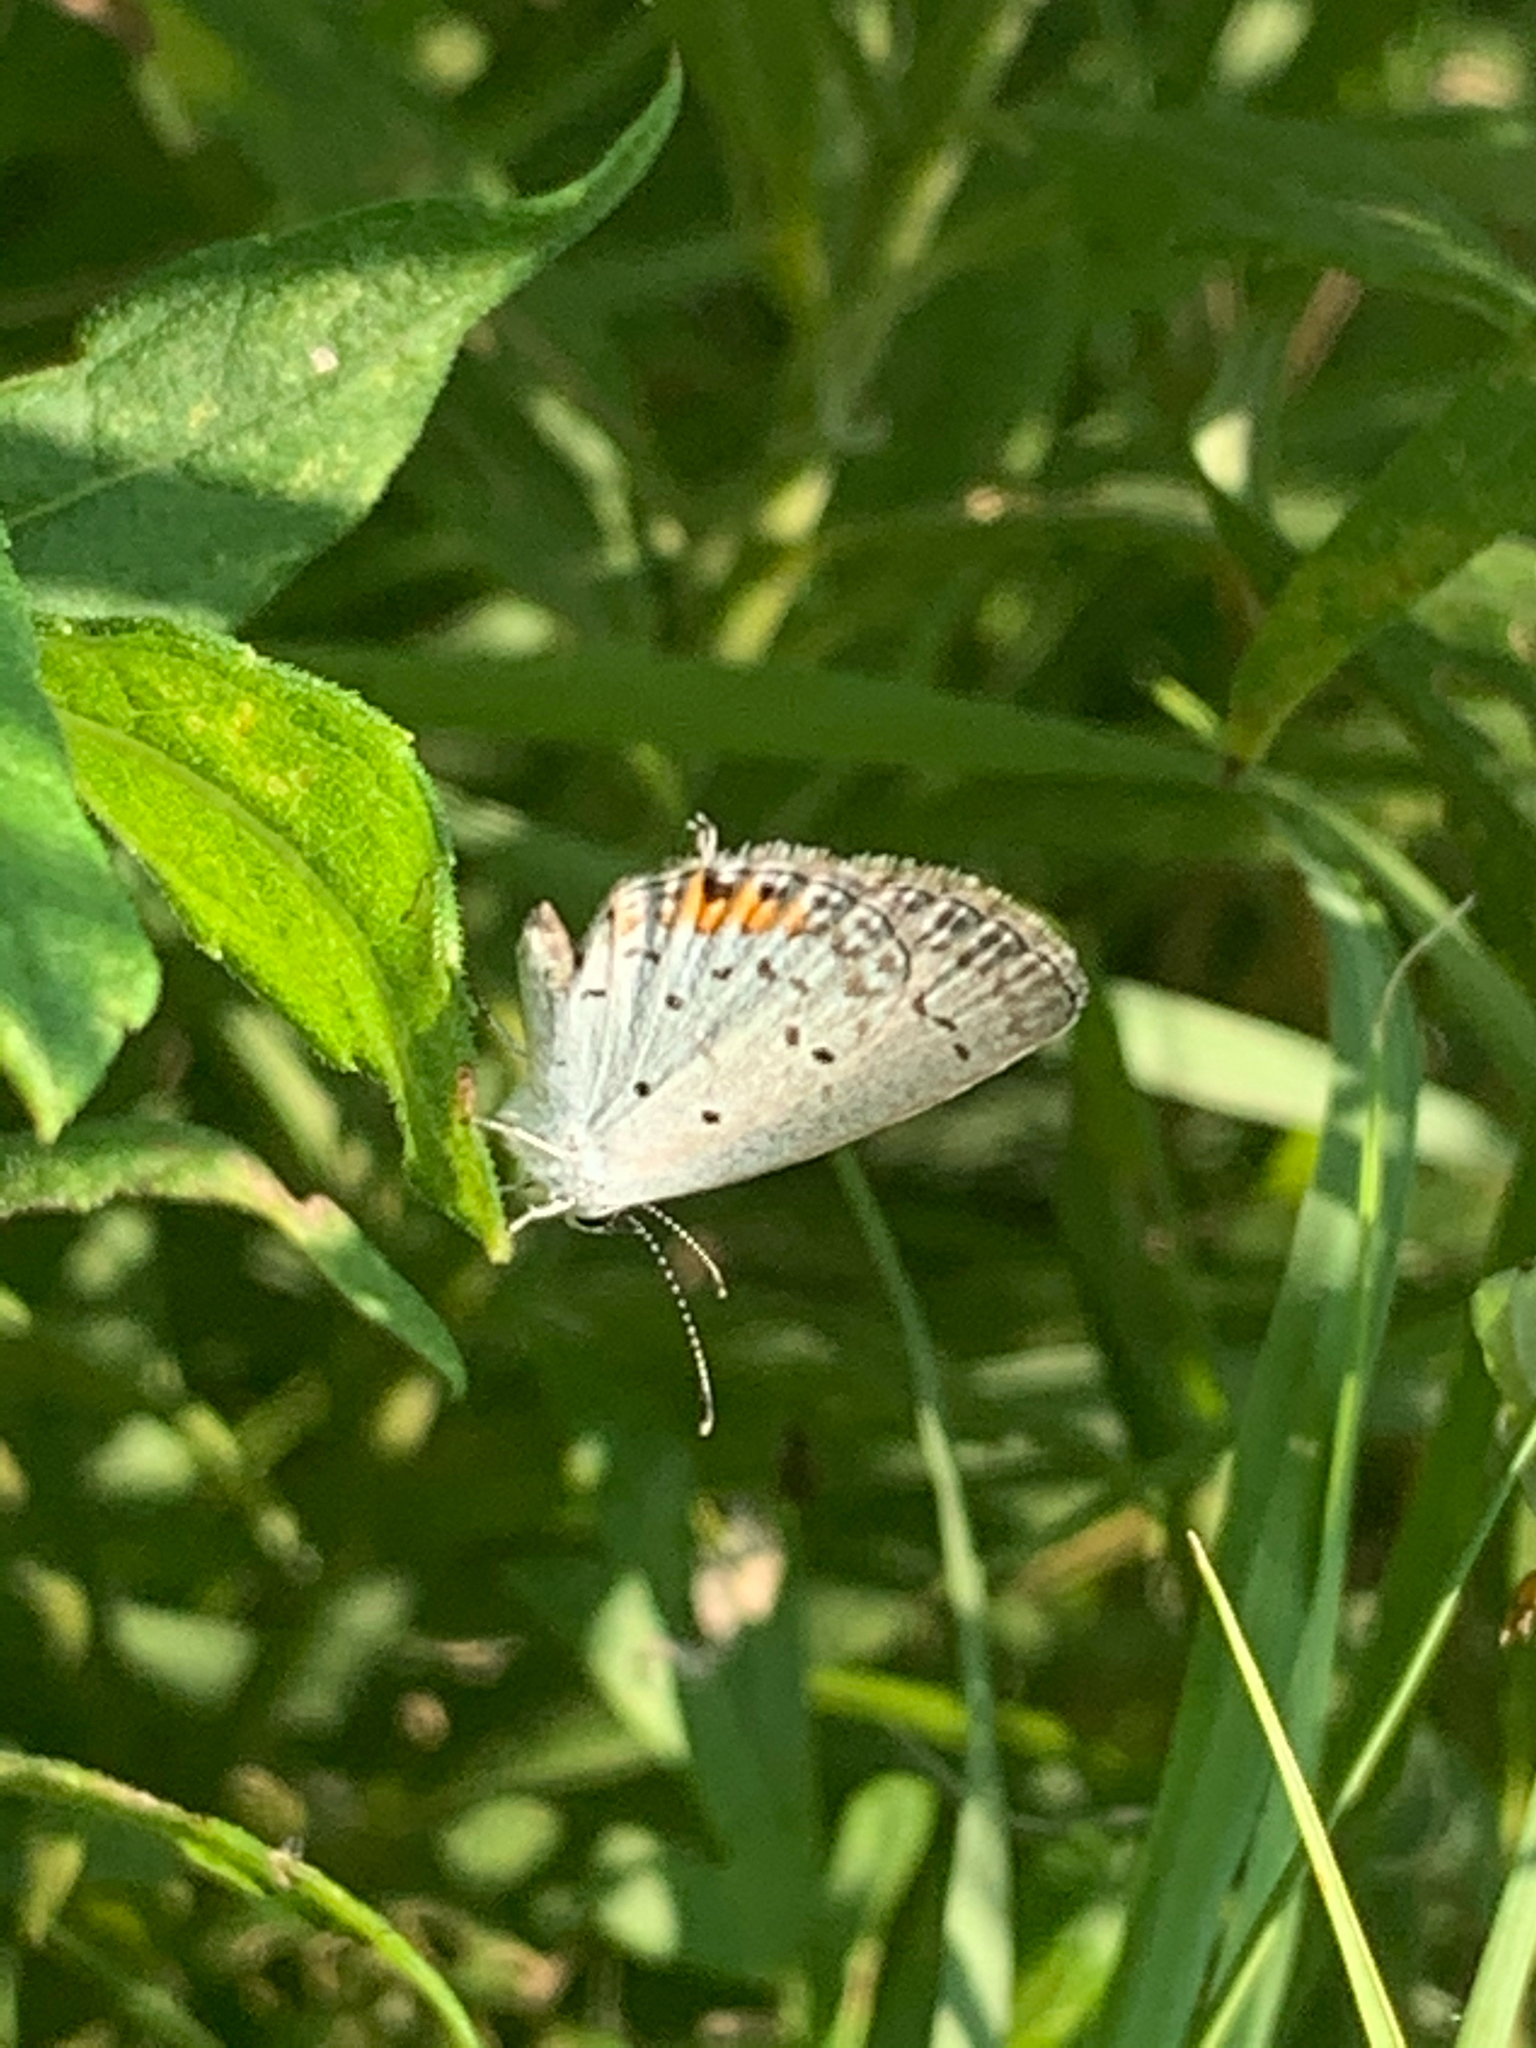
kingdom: Animalia
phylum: Arthropoda
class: Insecta
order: Lepidoptera
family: Lycaenidae
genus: Elkalyce
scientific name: Elkalyce comyntas
